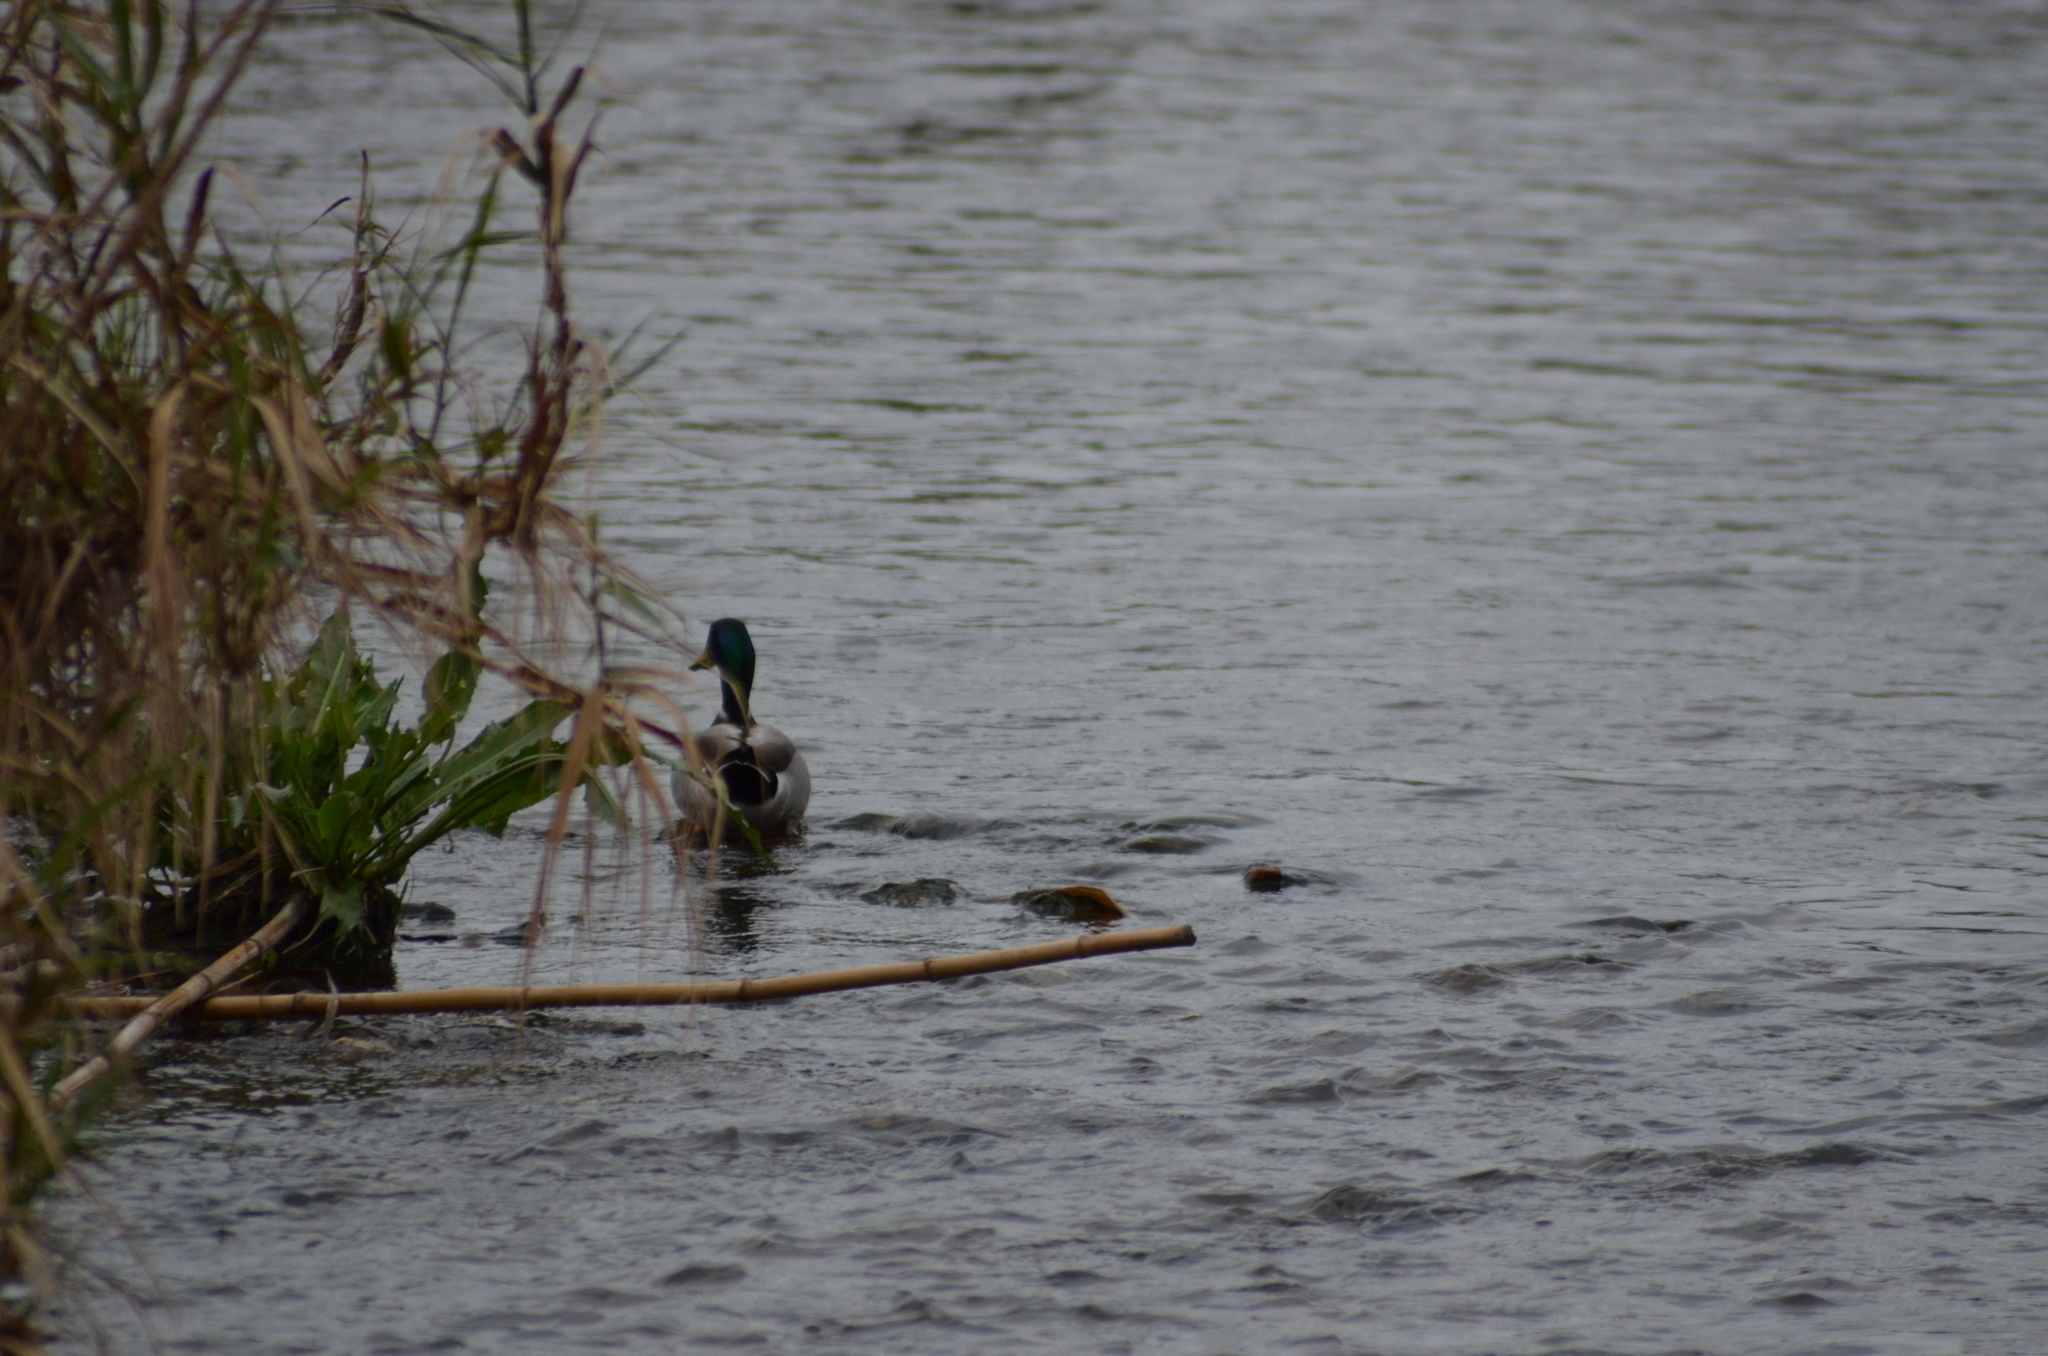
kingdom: Animalia
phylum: Chordata
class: Aves
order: Anseriformes
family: Anatidae
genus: Anas
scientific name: Anas platyrhynchos
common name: Mallard
